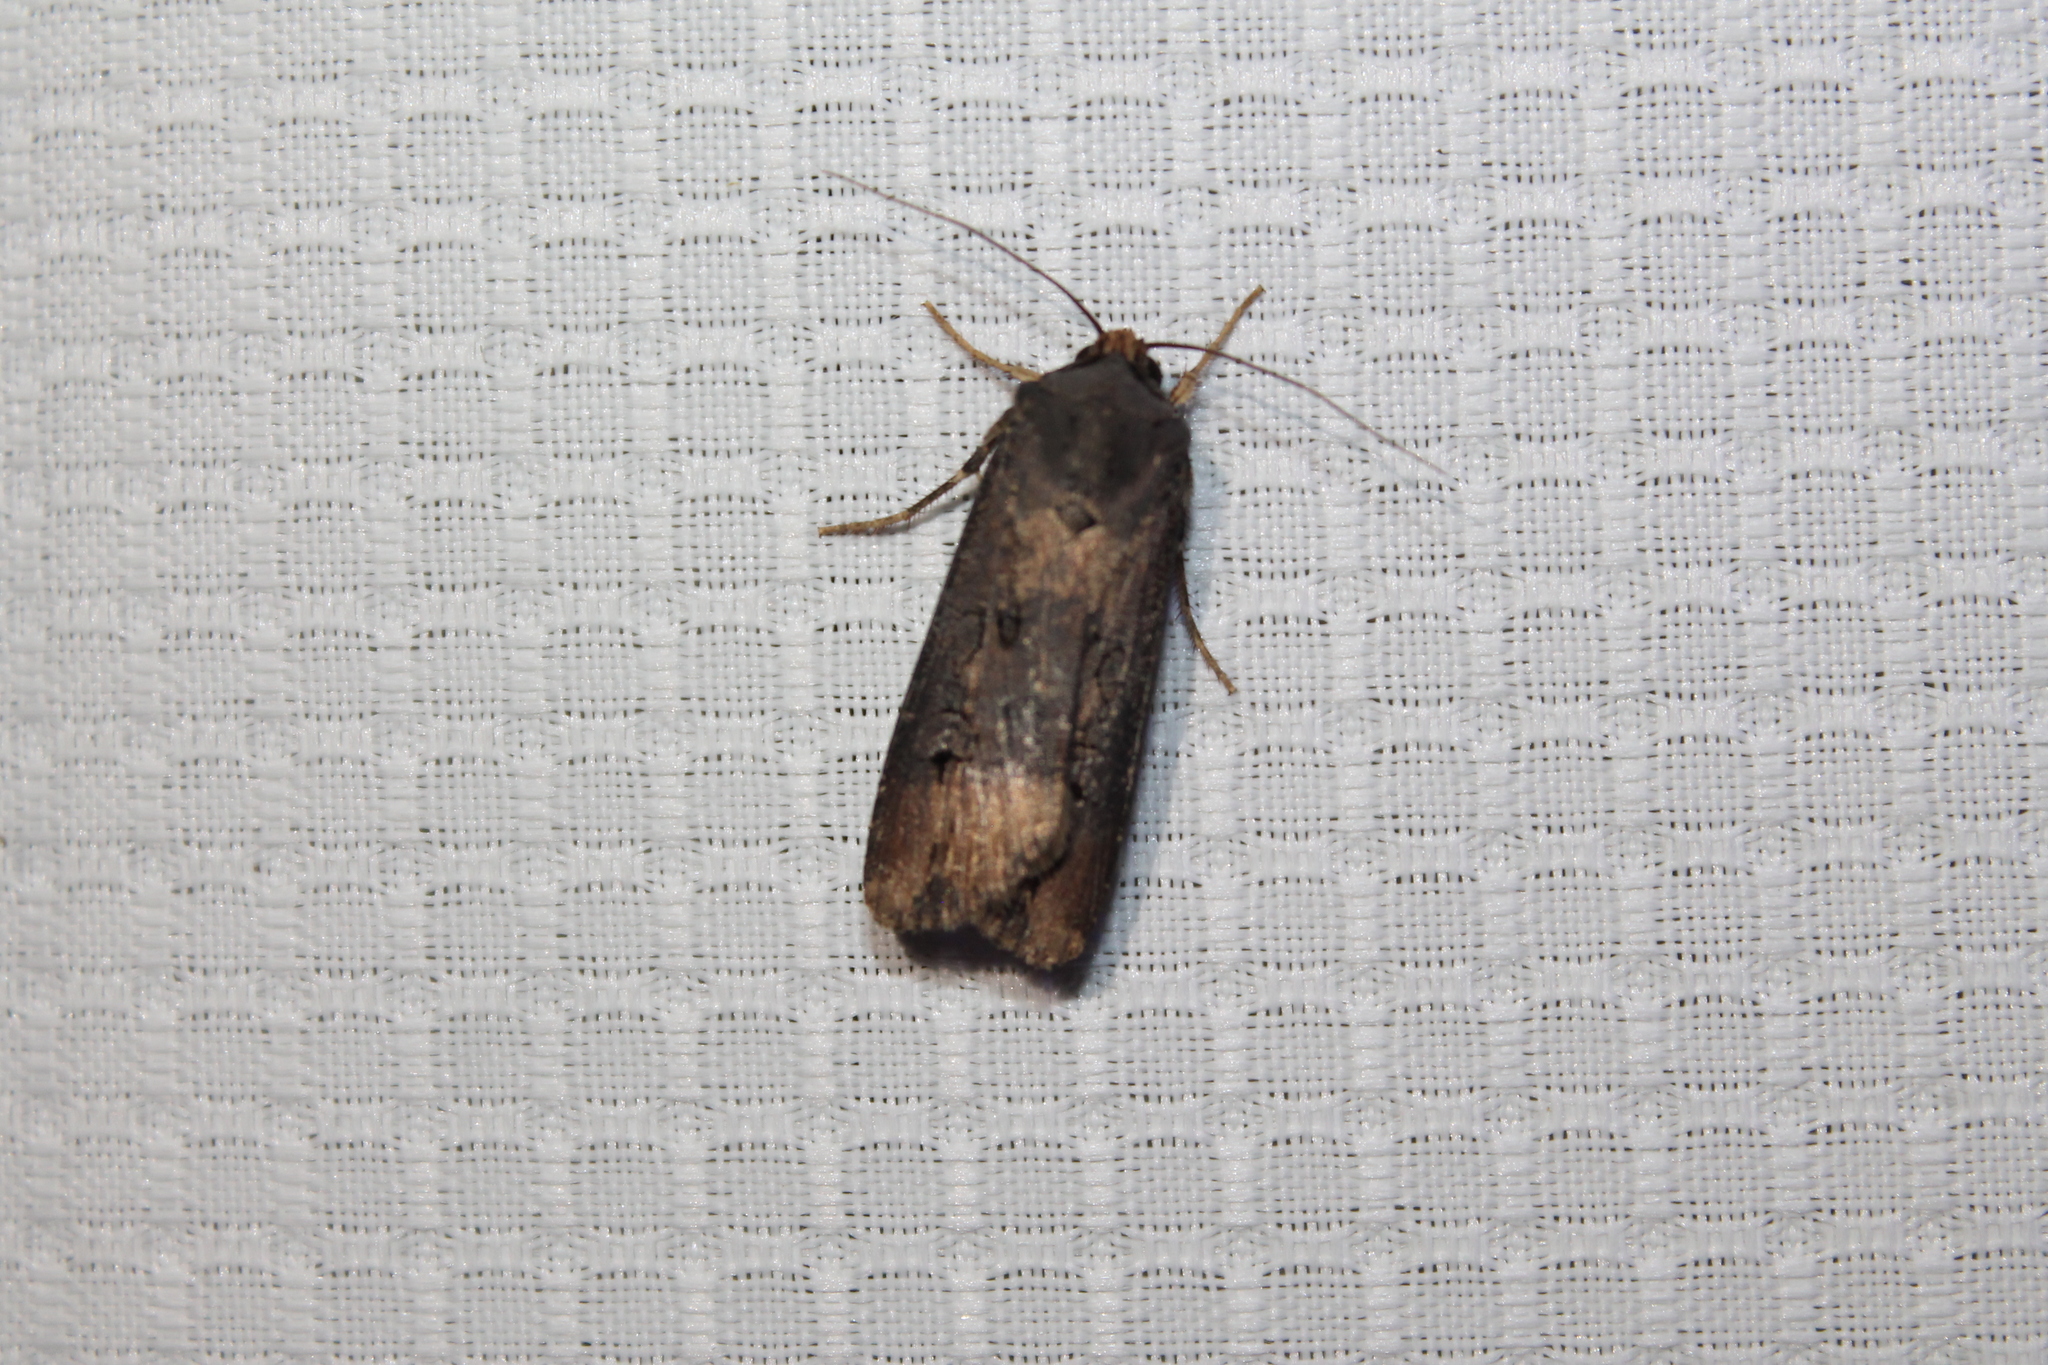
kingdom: Animalia
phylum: Arthropoda
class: Insecta
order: Lepidoptera
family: Noctuidae
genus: Agrotis
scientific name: Agrotis ipsilon
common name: Dark sword-grass
